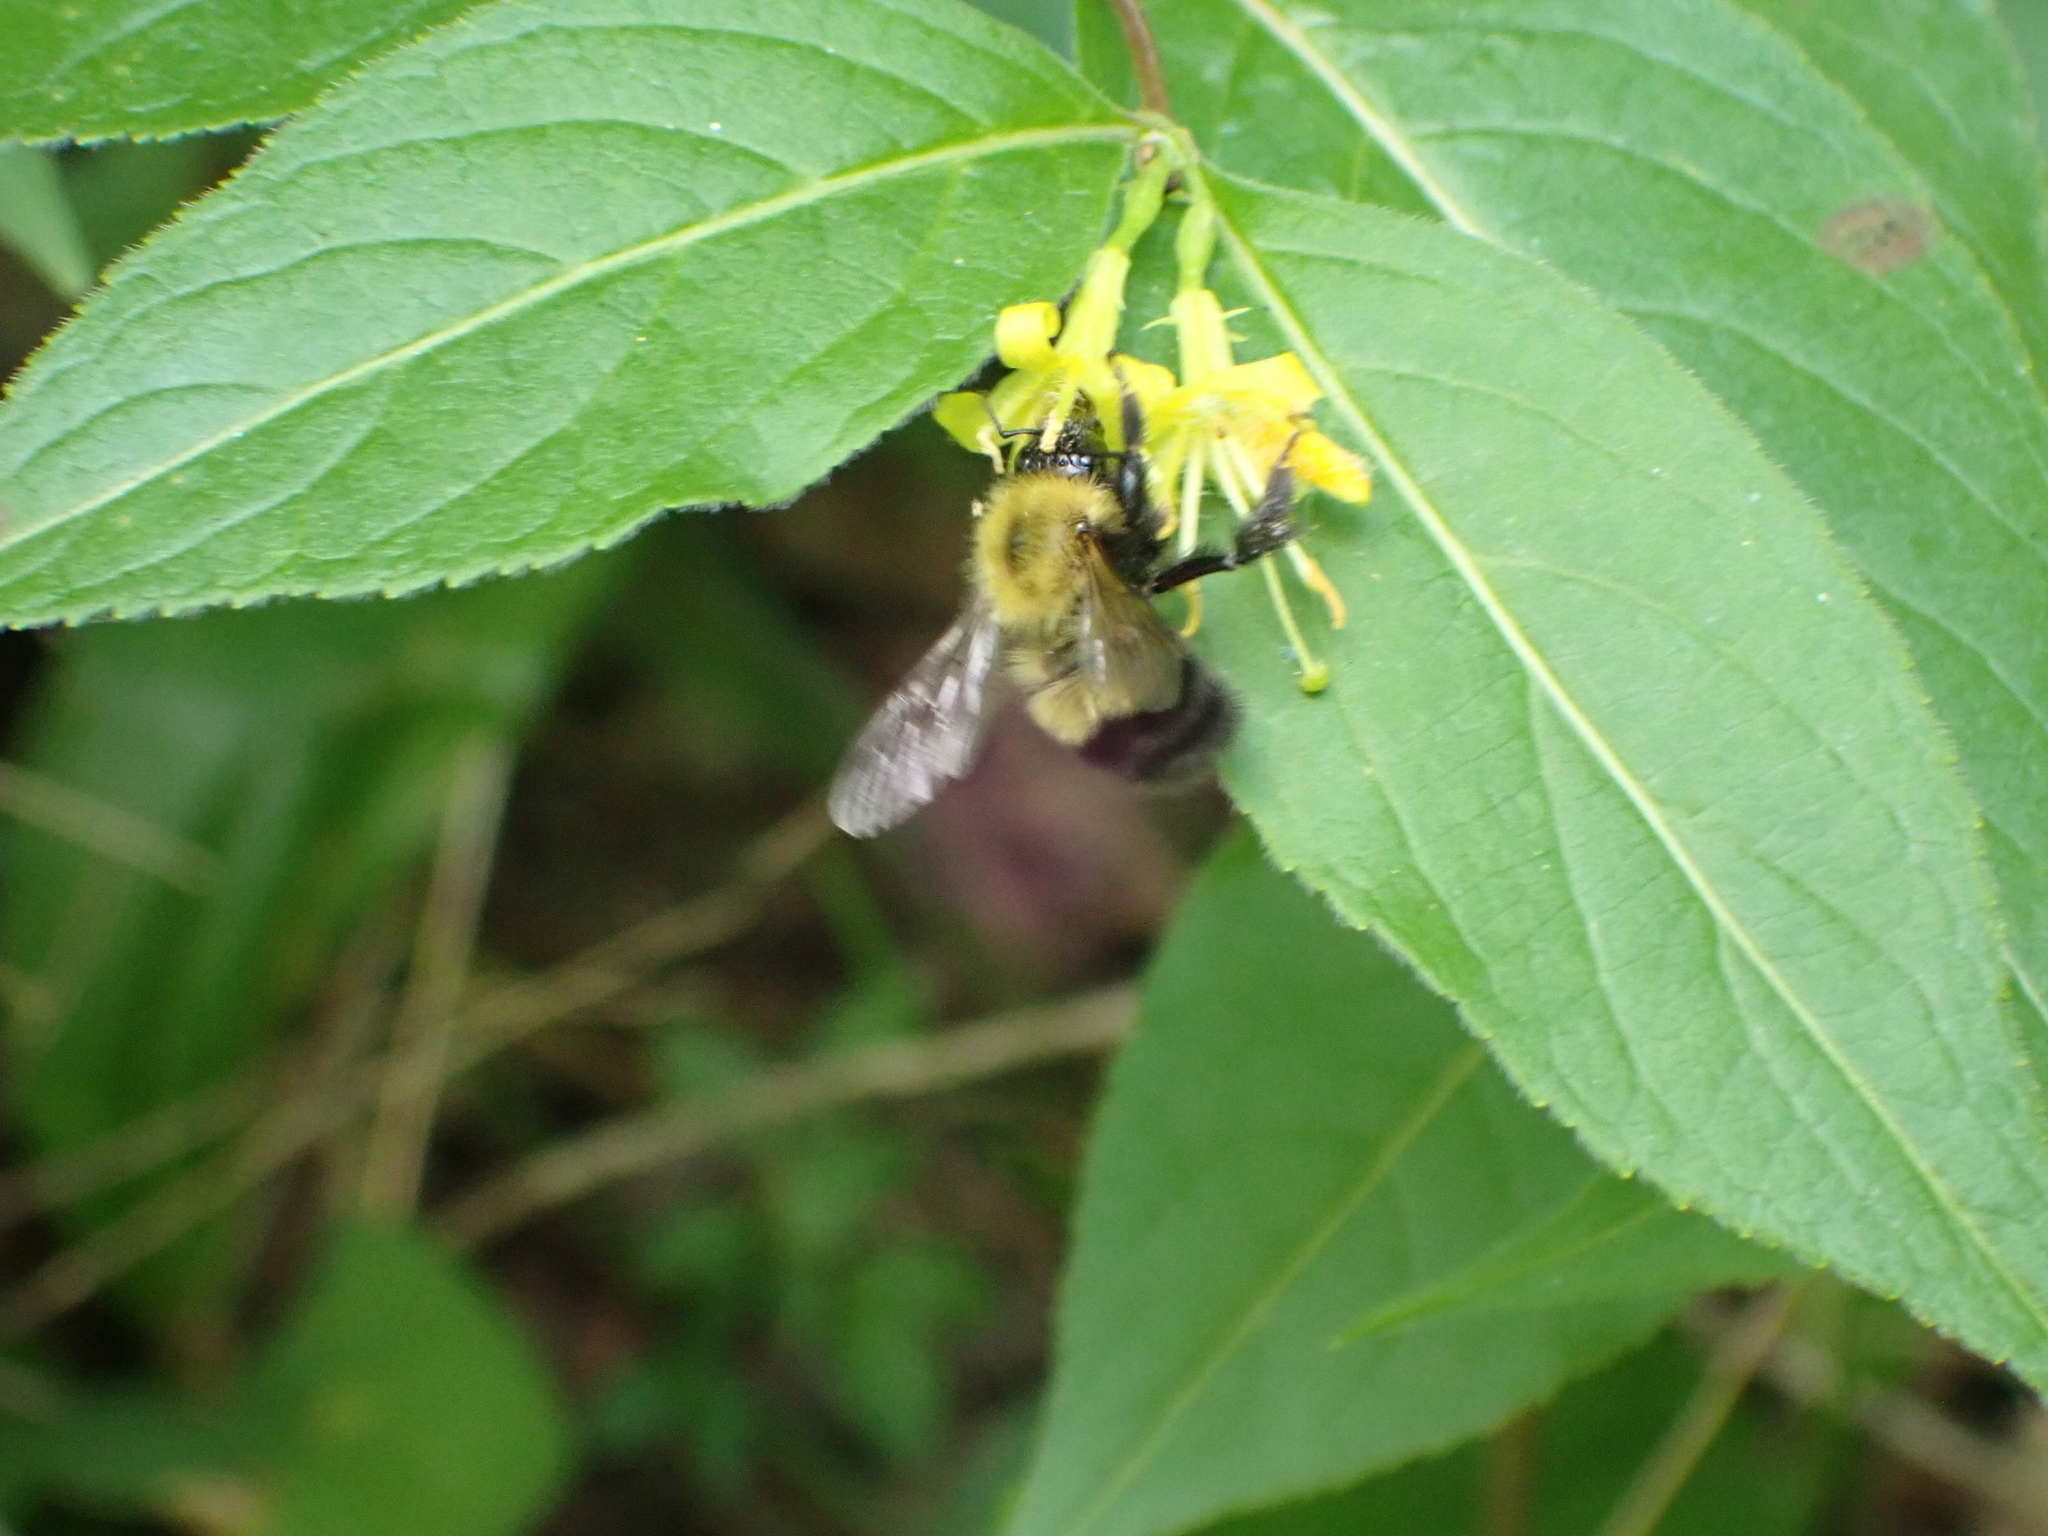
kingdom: Animalia
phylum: Arthropoda
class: Insecta
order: Hymenoptera
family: Apidae
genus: Bombus
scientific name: Bombus perplexus
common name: Confusing bumble bee
